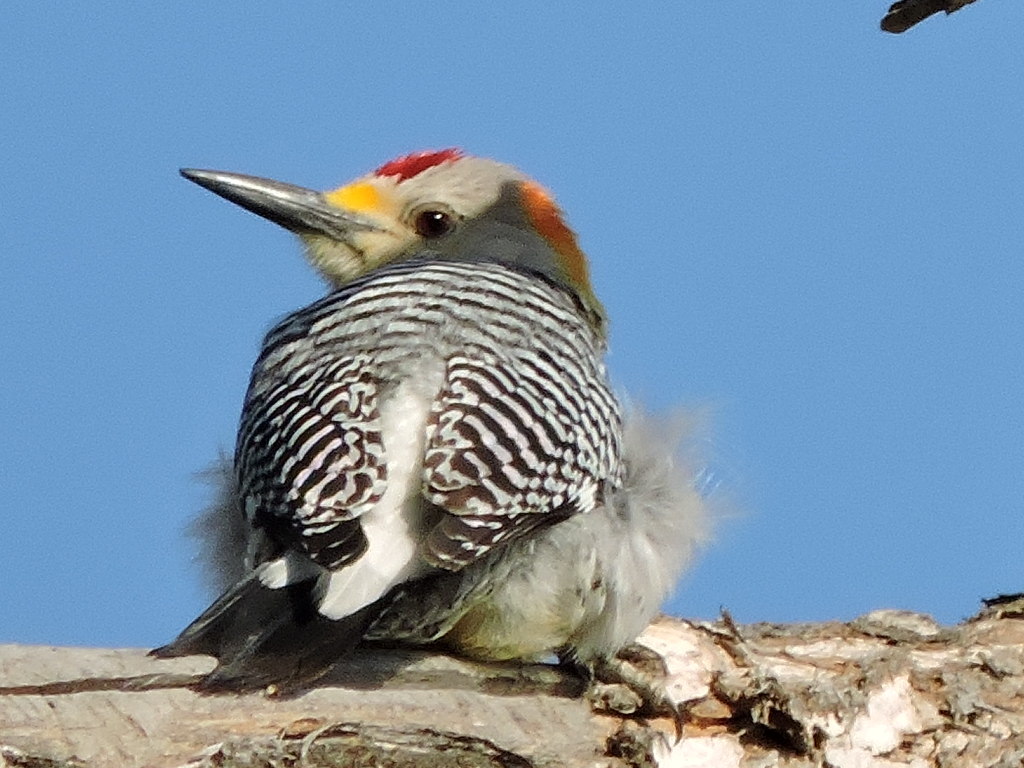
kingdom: Animalia
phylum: Chordata
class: Aves
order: Piciformes
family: Picidae
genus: Melanerpes
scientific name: Melanerpes aurifrons
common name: Golden-fronted woodpecker
